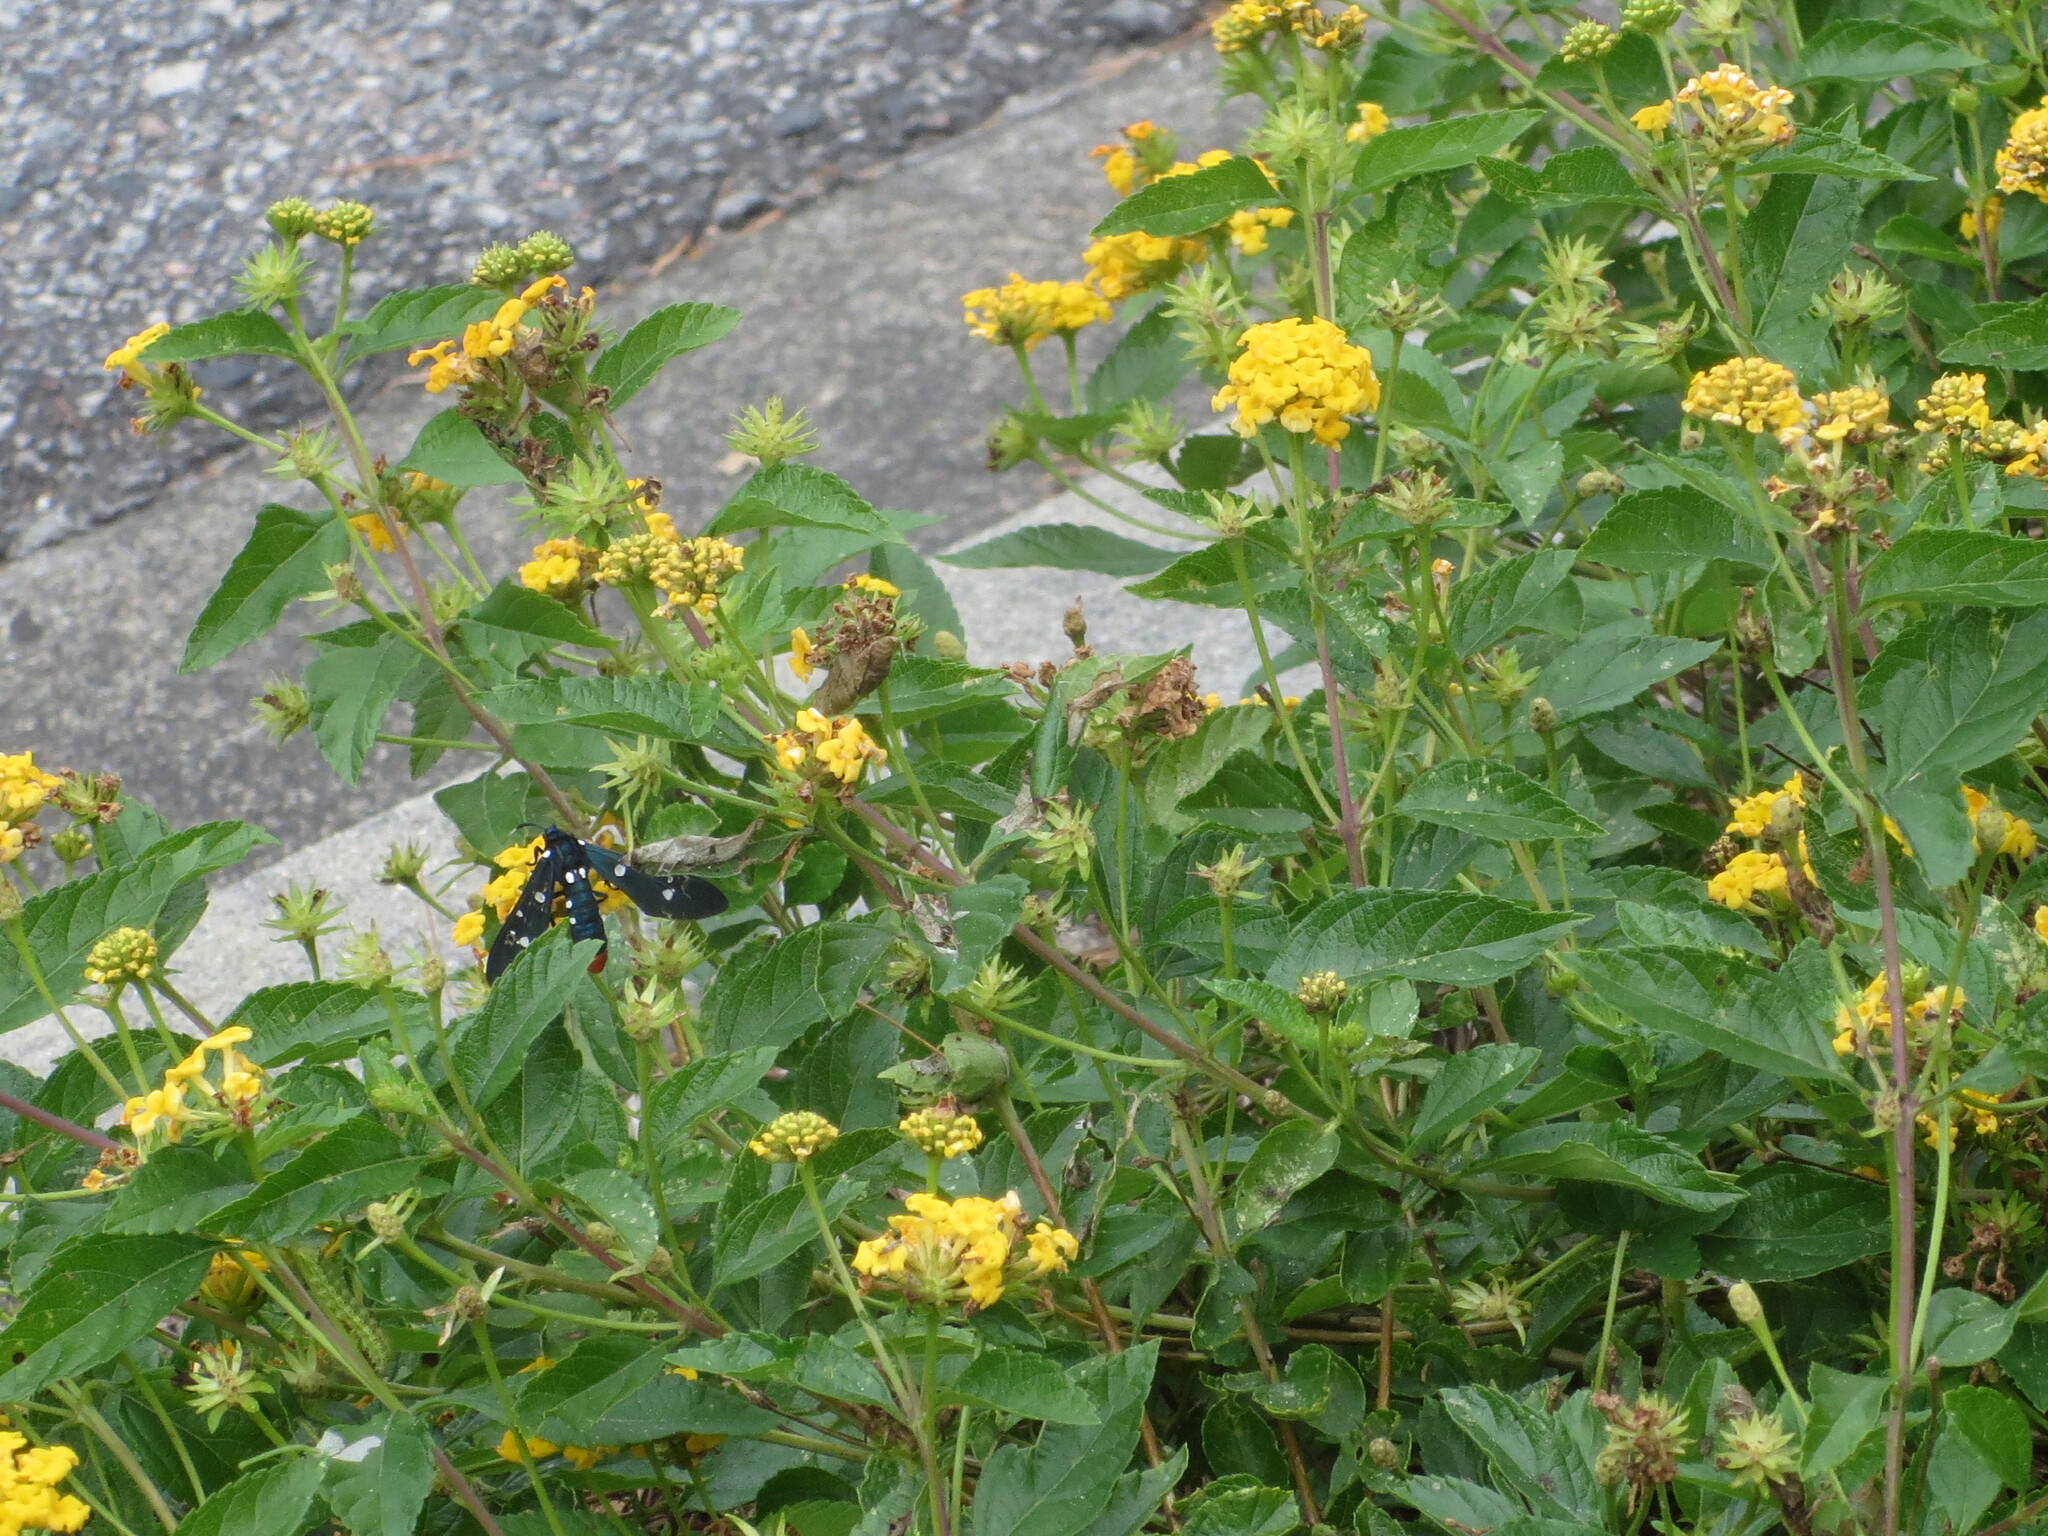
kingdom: Animalia
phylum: Arthropoda
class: Insecta
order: Lepidoptera
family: Erebidae
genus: Syntomeida
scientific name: Syntomeida epilais
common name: Polka-dot wasp moth
